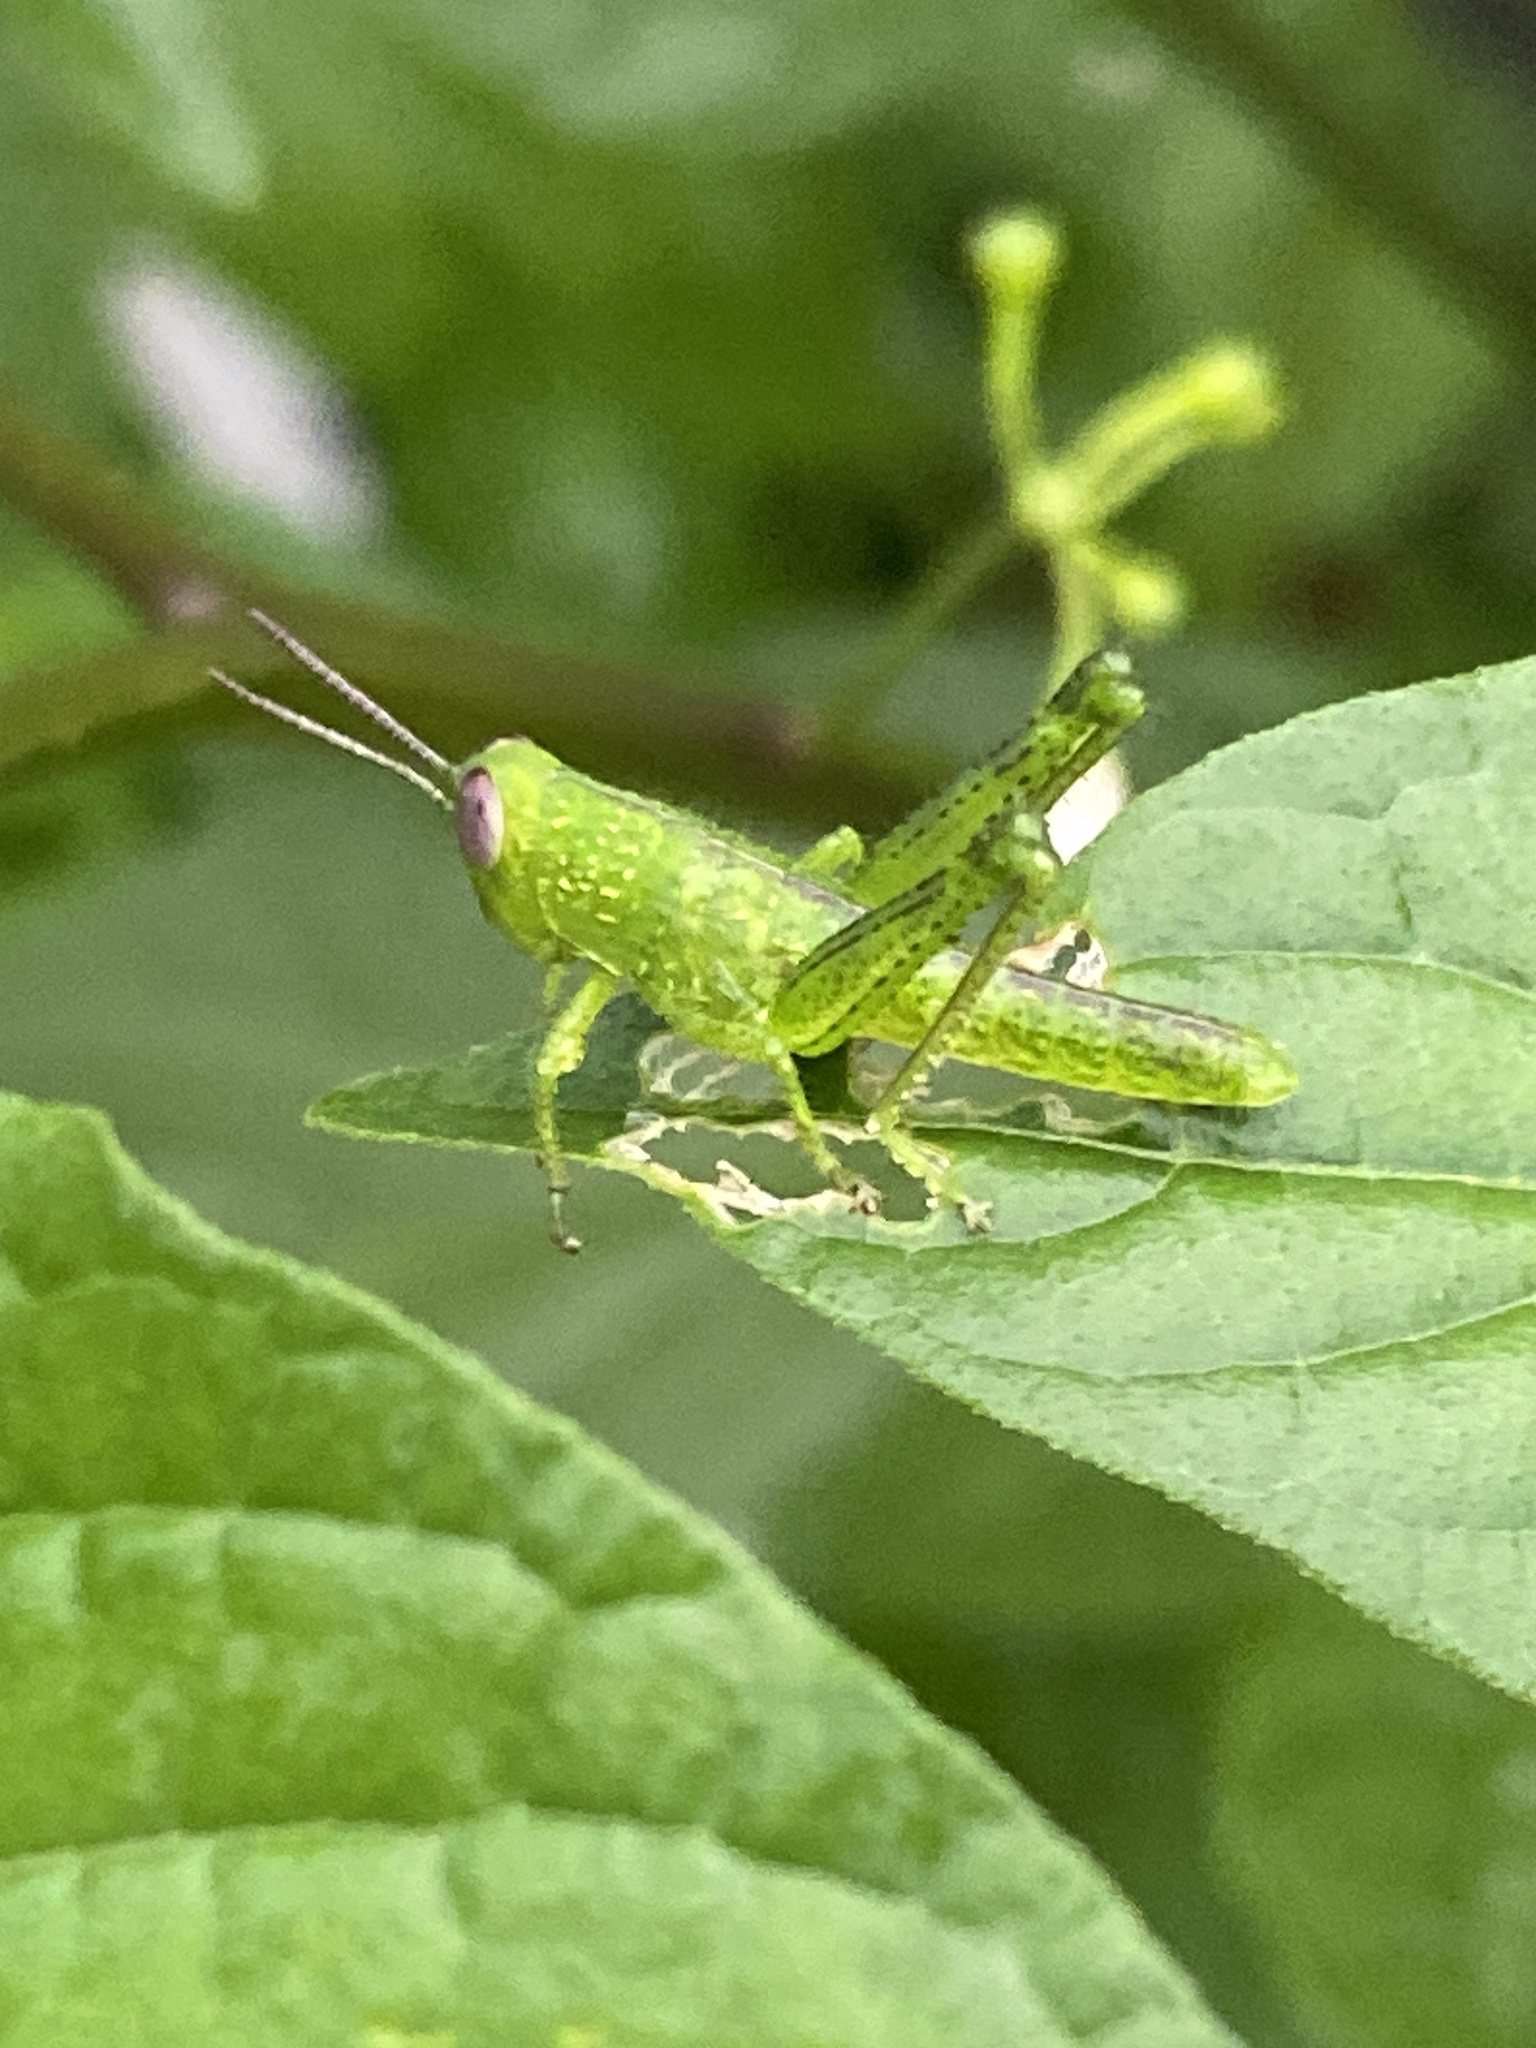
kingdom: Animalia
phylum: Arthropoda
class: Insecta
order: Orthoptera
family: Acrididae
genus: Valanga
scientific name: Valanga irregularis
